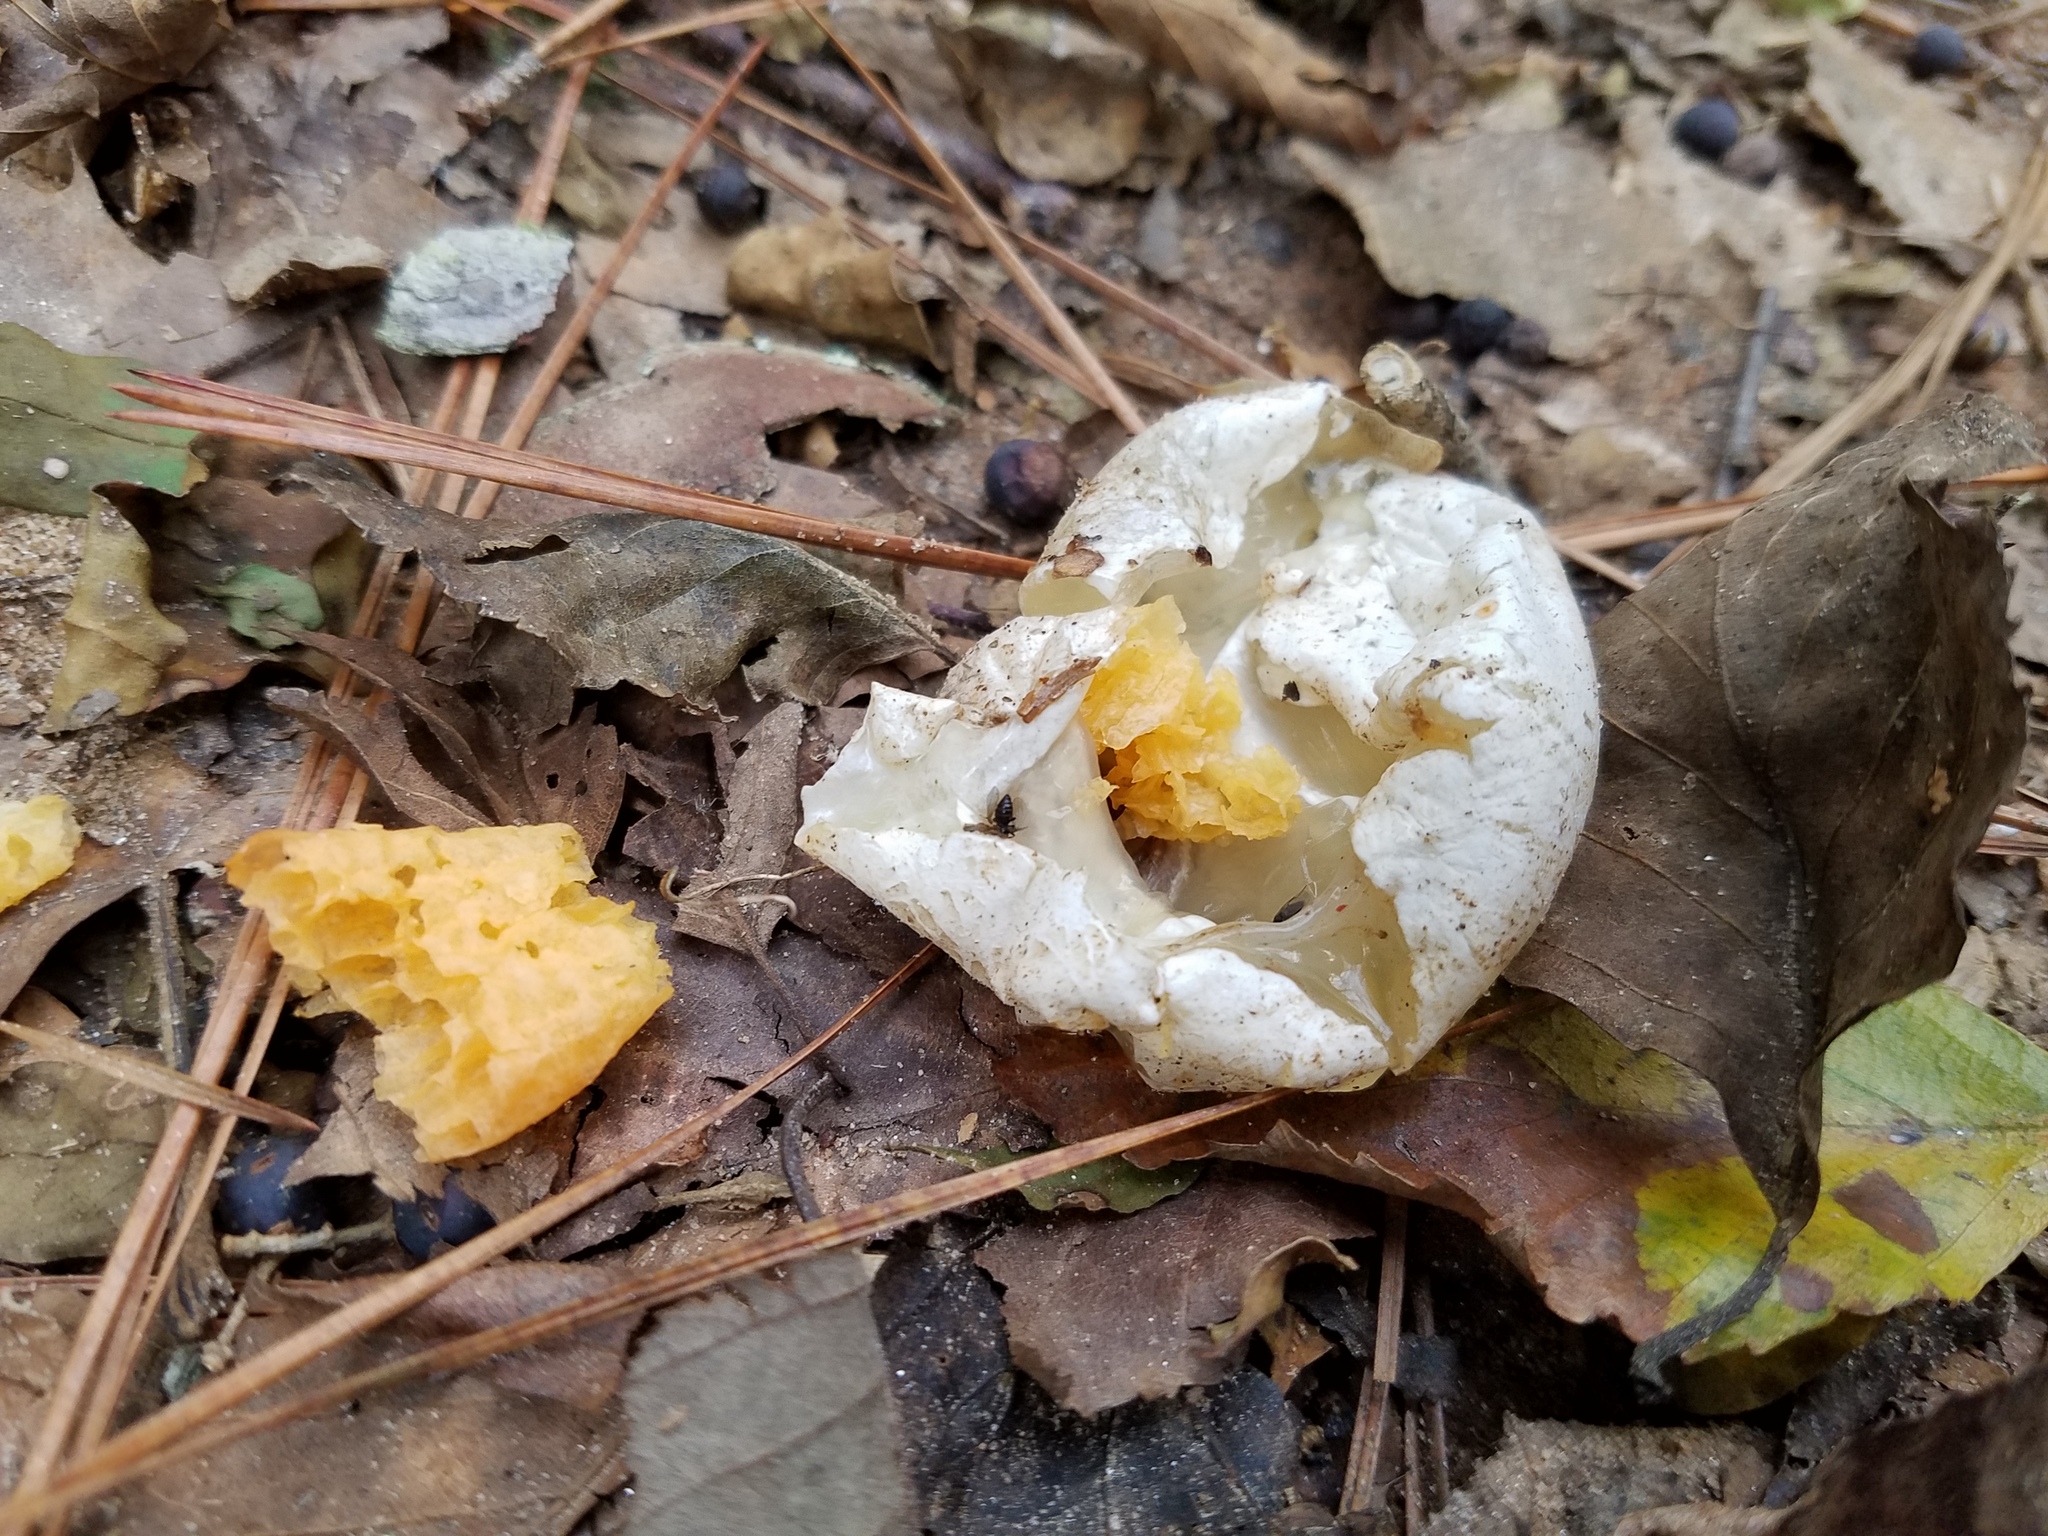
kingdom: Fungi
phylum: Basidiomycota
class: Agaricomycetes
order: Phallales
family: Phallaceae
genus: Clathrus
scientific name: Clathrus columnatus
